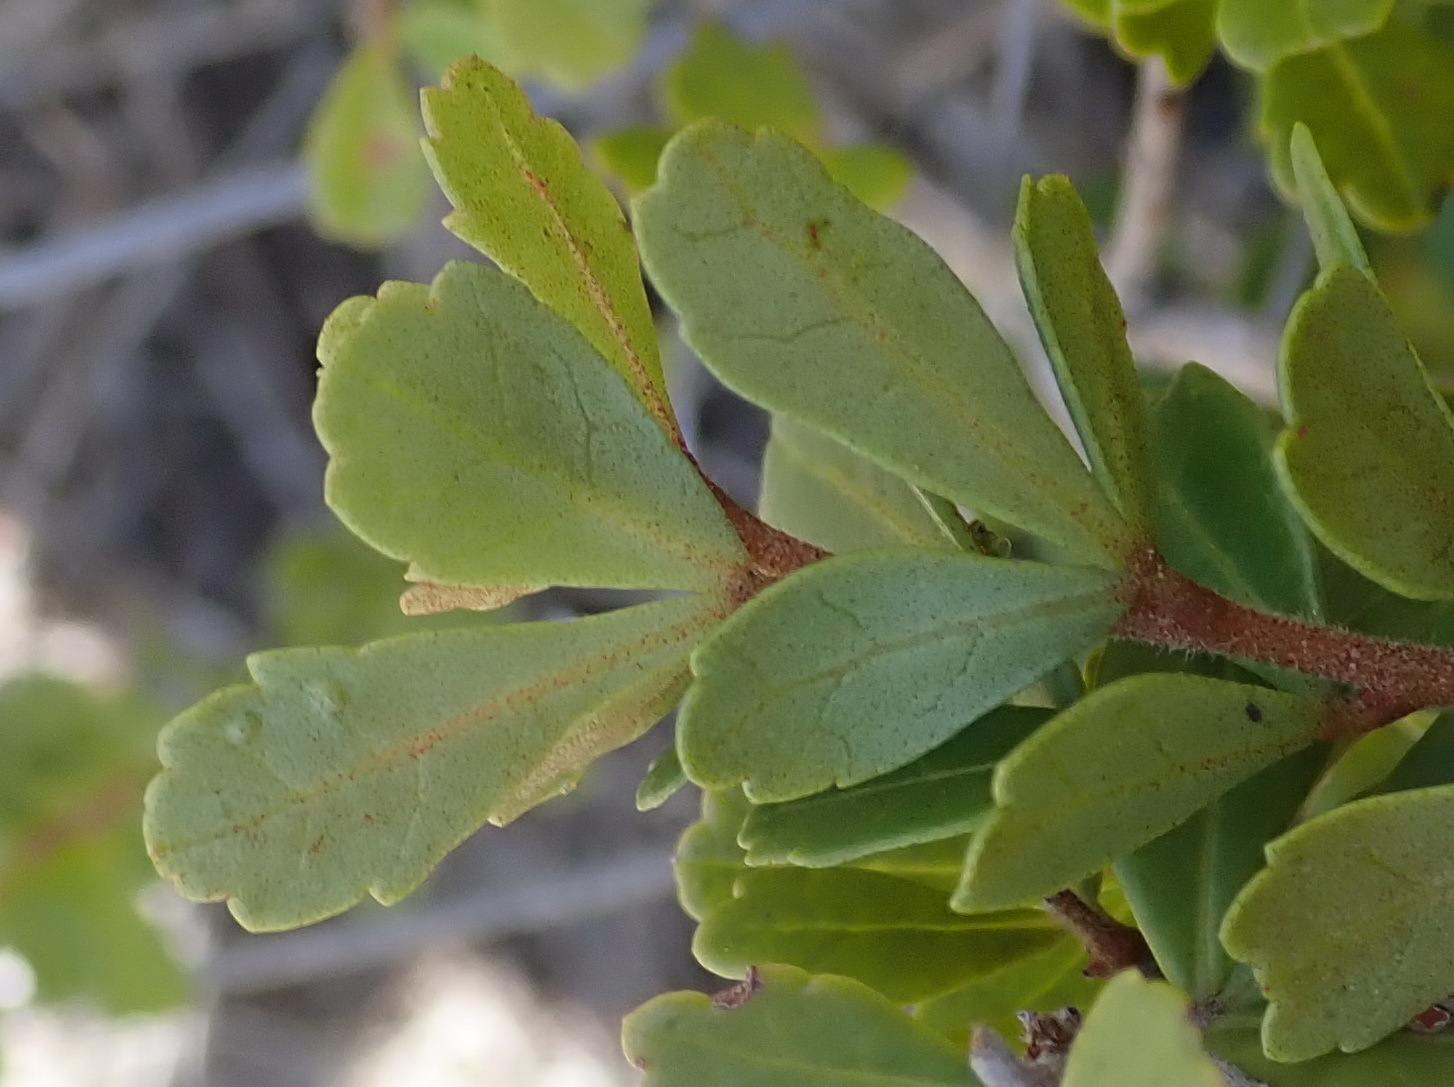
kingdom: Plantae
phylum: Tracheophyta
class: Magnoliopsida
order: Sapindales
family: Anacardiaceae
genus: Searsia
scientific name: Searsia crenata
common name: Crowberry
